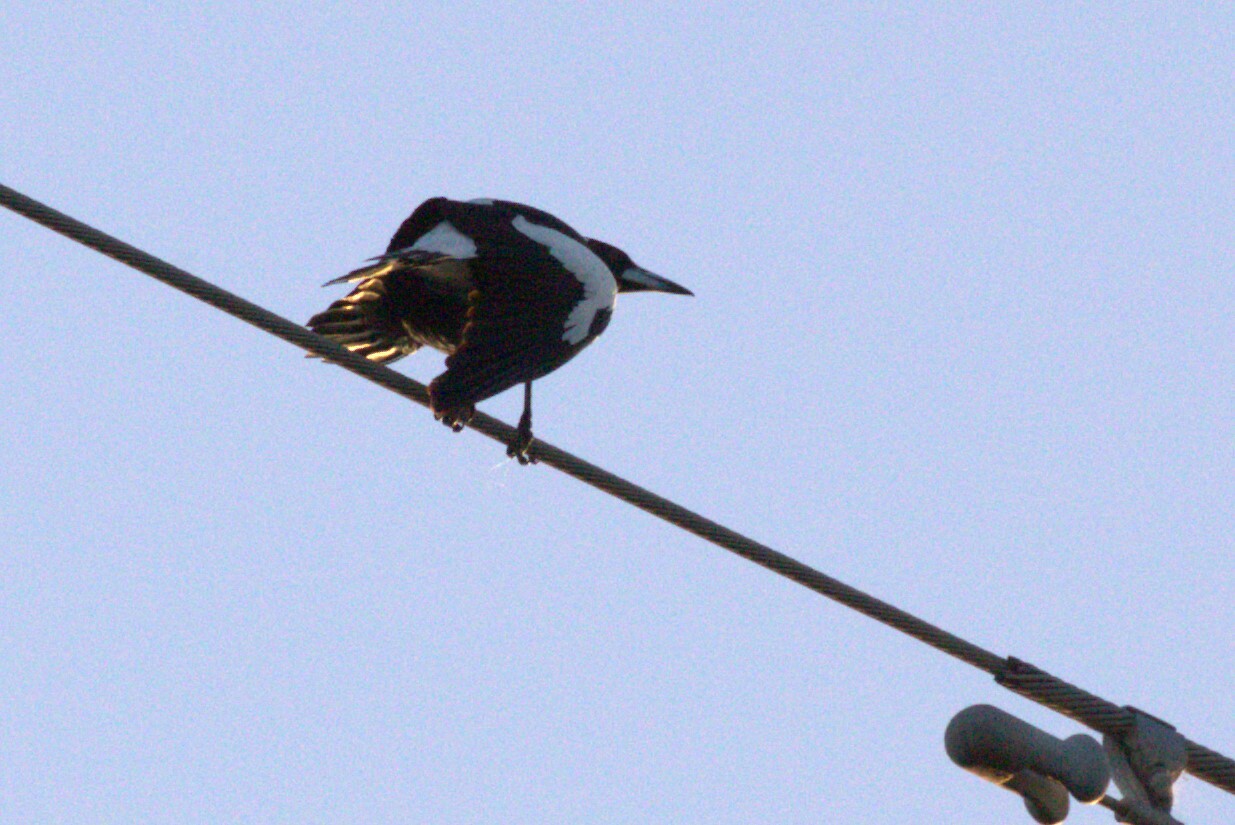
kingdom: Animalia
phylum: Chordata
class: Aves
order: Passeriformes
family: Cracticidae
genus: Gymnorhina
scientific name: Gymnorhina tibicen
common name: Australian magpie
